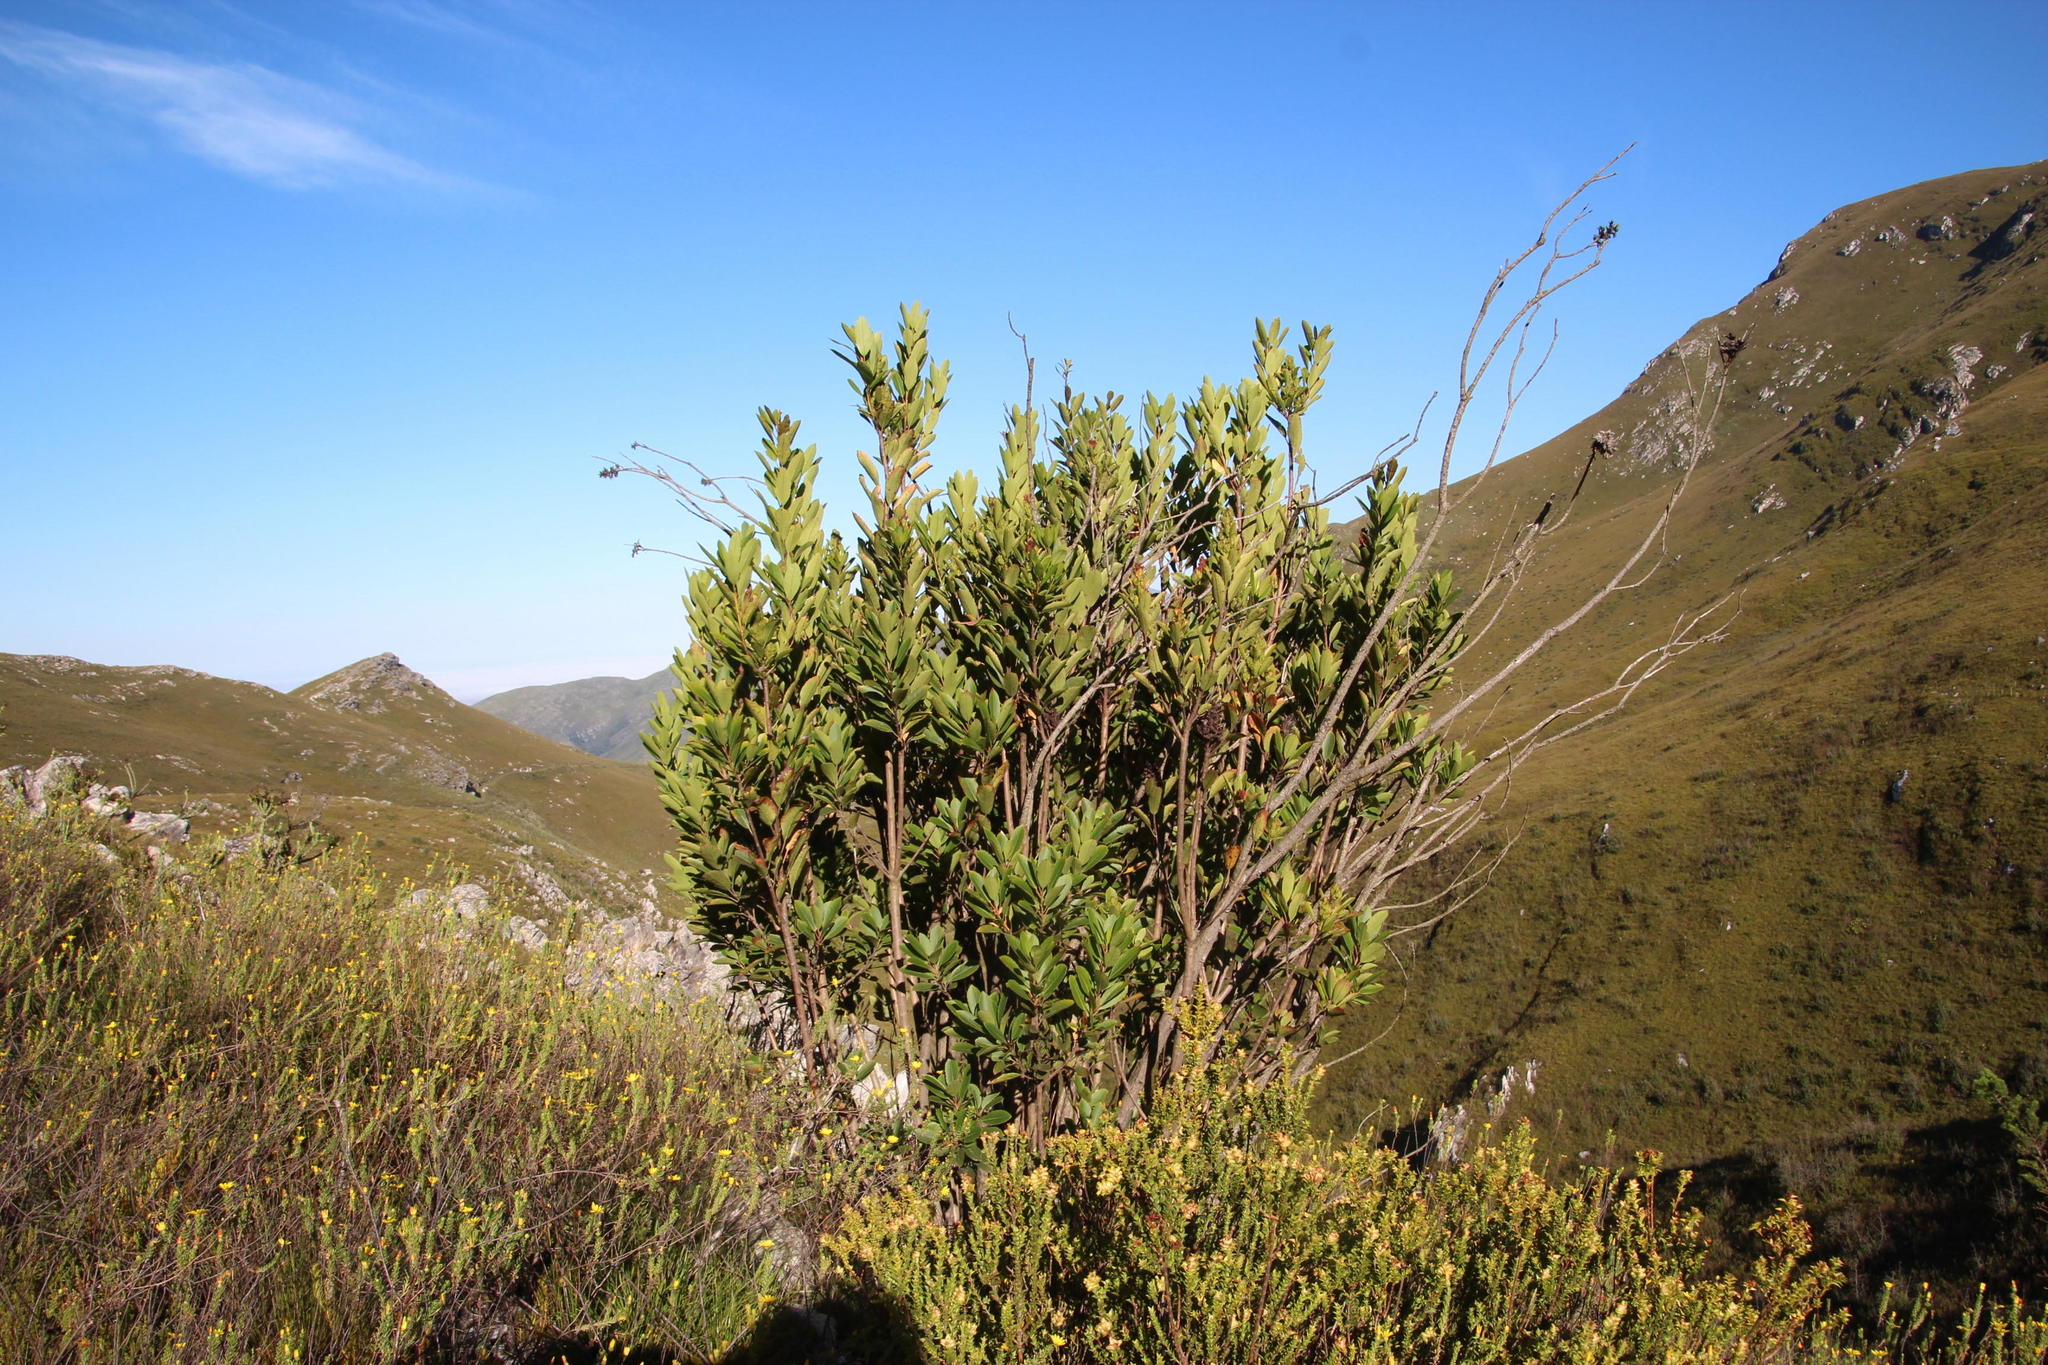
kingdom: Plantae
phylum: Tracheophyta
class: Magnoliopsida
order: Sapindales
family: Anacardiaceae
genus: Laurophyllus
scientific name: Laurophyllus capensis
